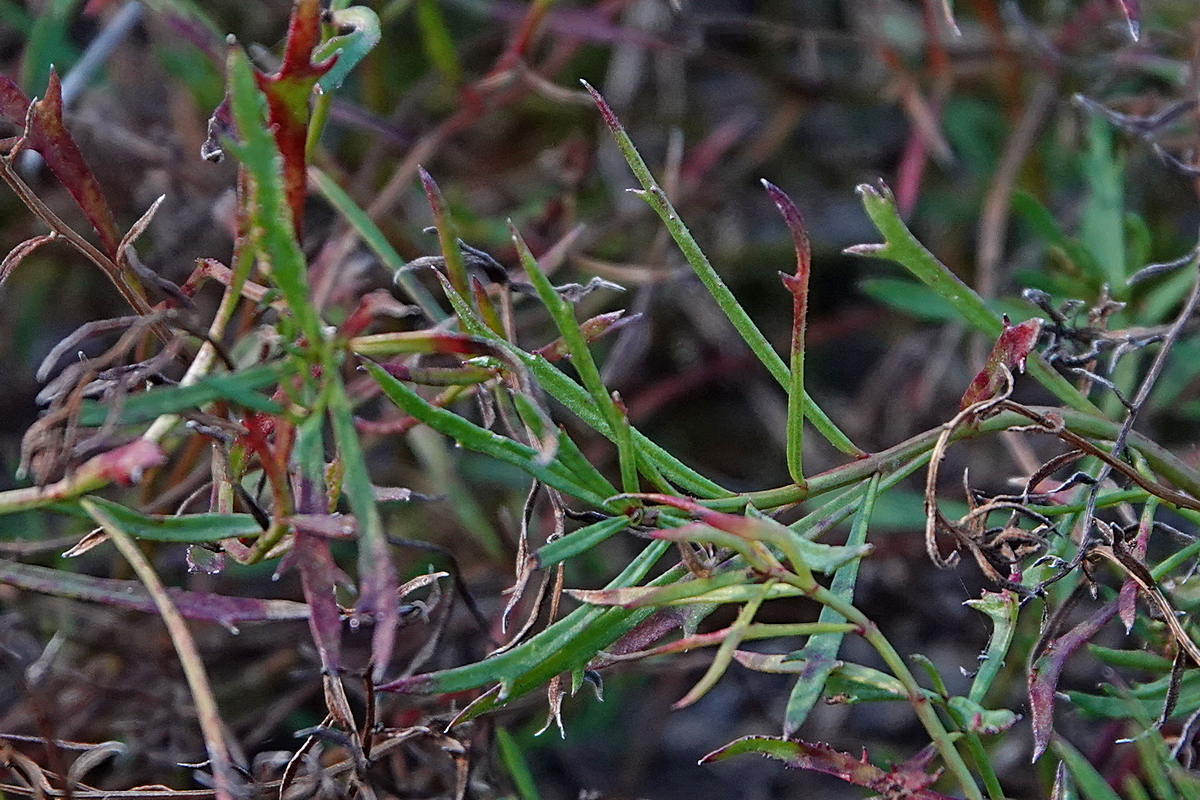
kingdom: Plantae
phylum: Tracheophyta
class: Magnoliopsida
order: Saxifragales
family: Haloragaceae
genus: Haloragis
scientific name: Haloragis heterophylla
